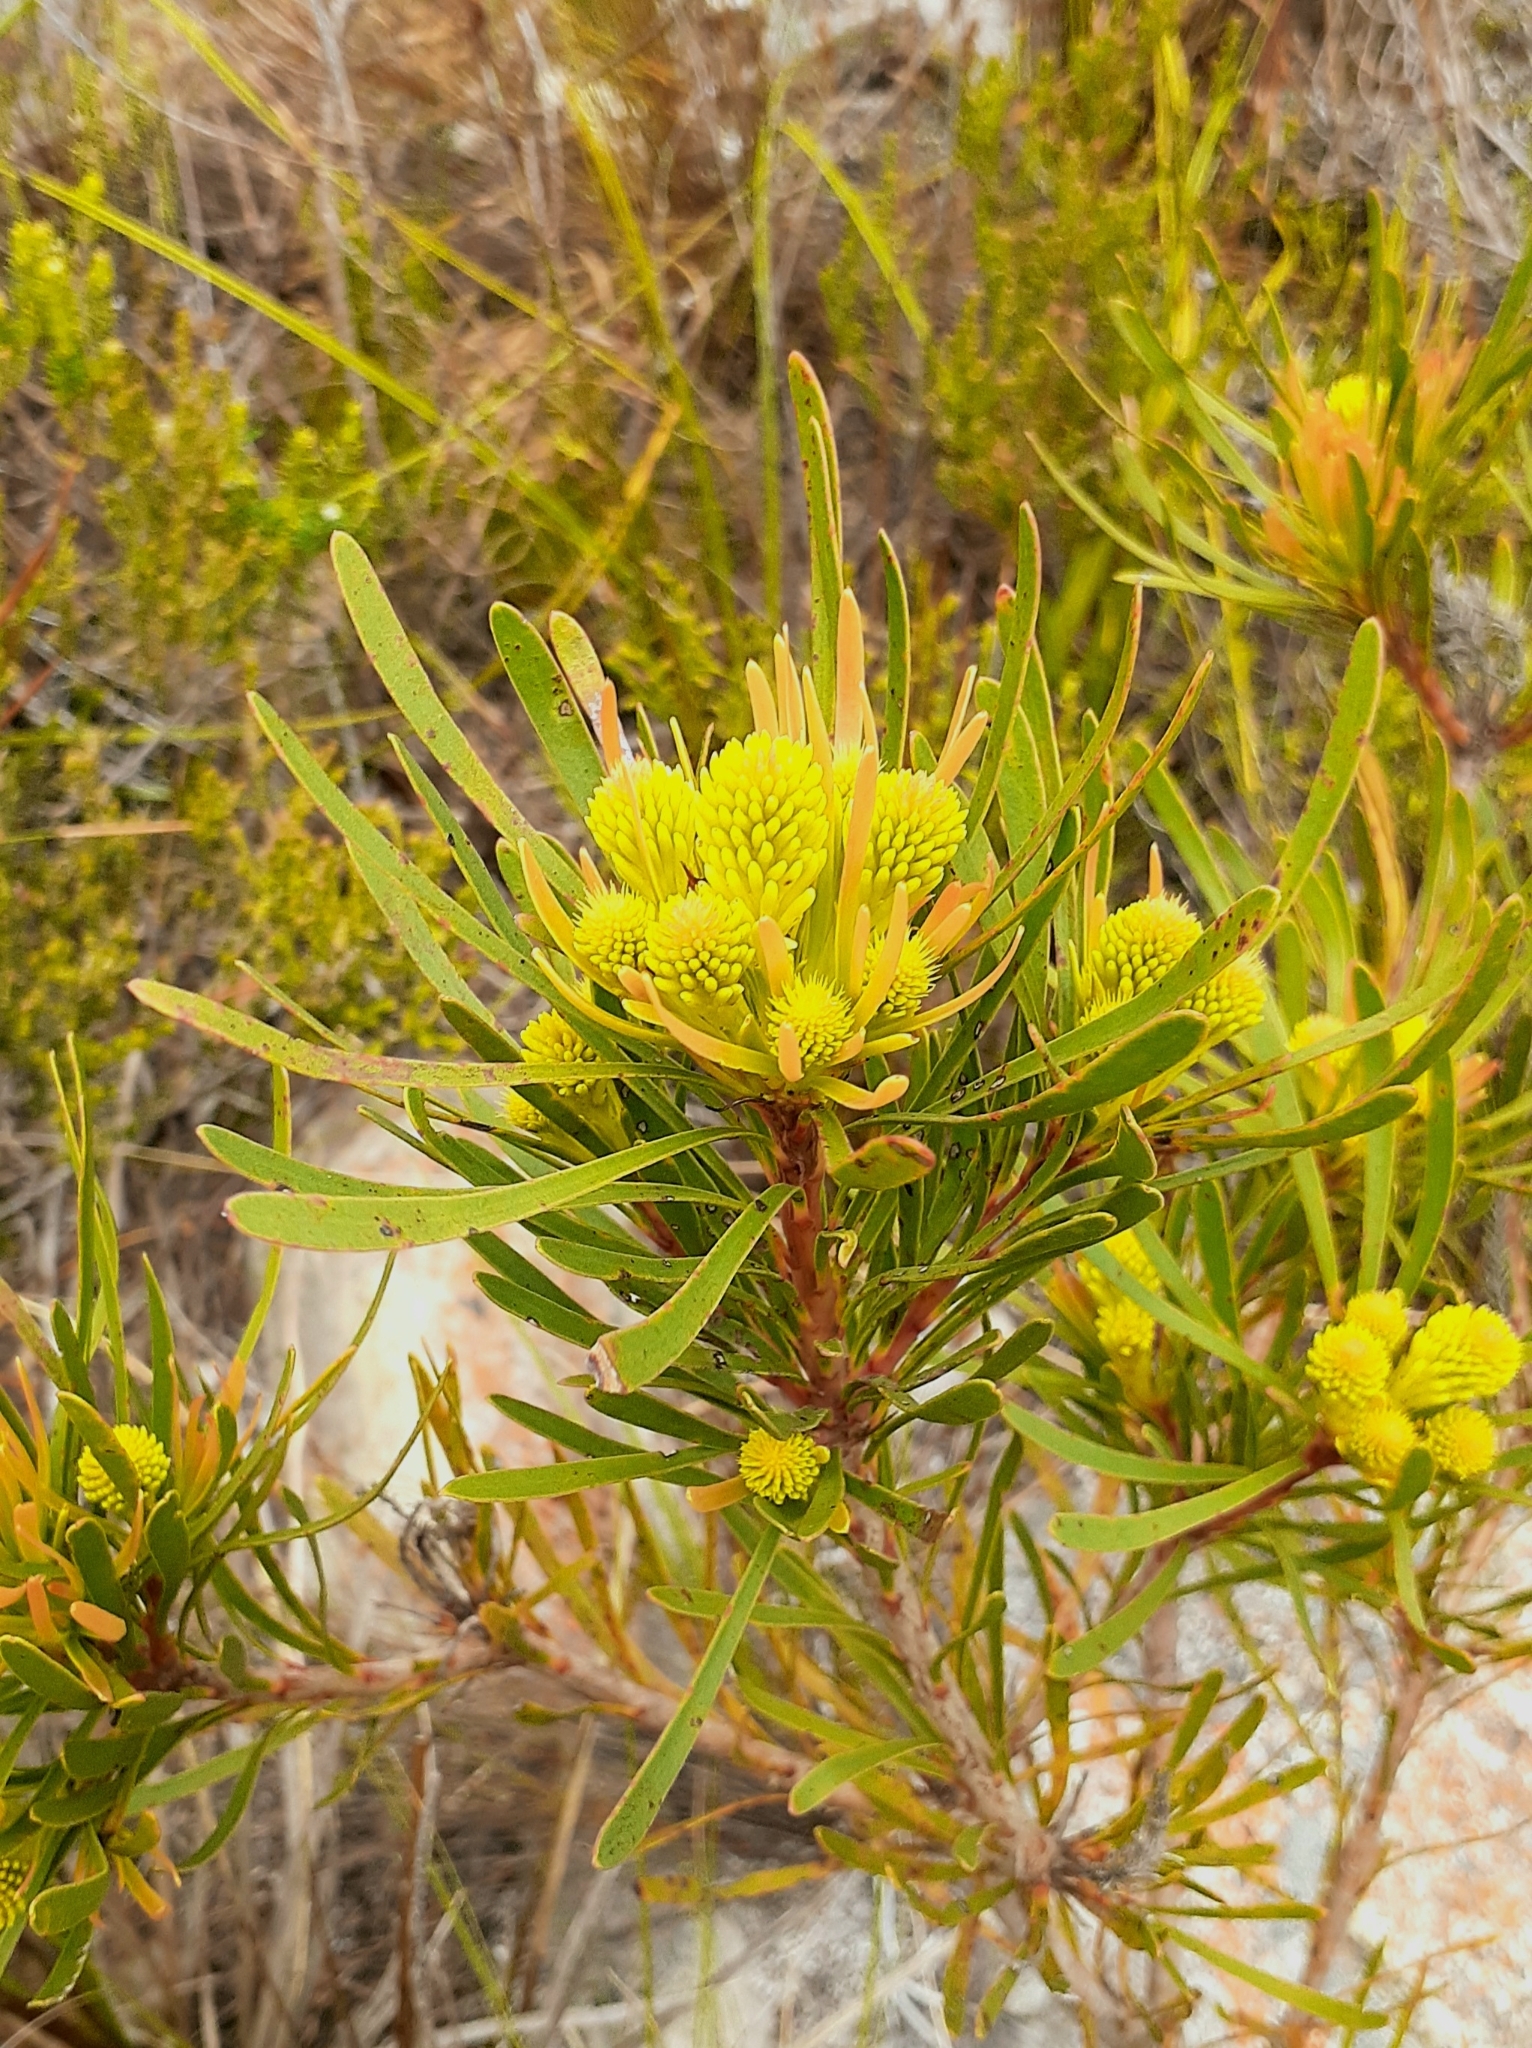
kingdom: Plantae
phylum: Tracheophyta
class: Magnoliopsida
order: Proteales
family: Proteaceae
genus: Aulax
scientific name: Aulax umbellata
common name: Broad-leaf featherbush
